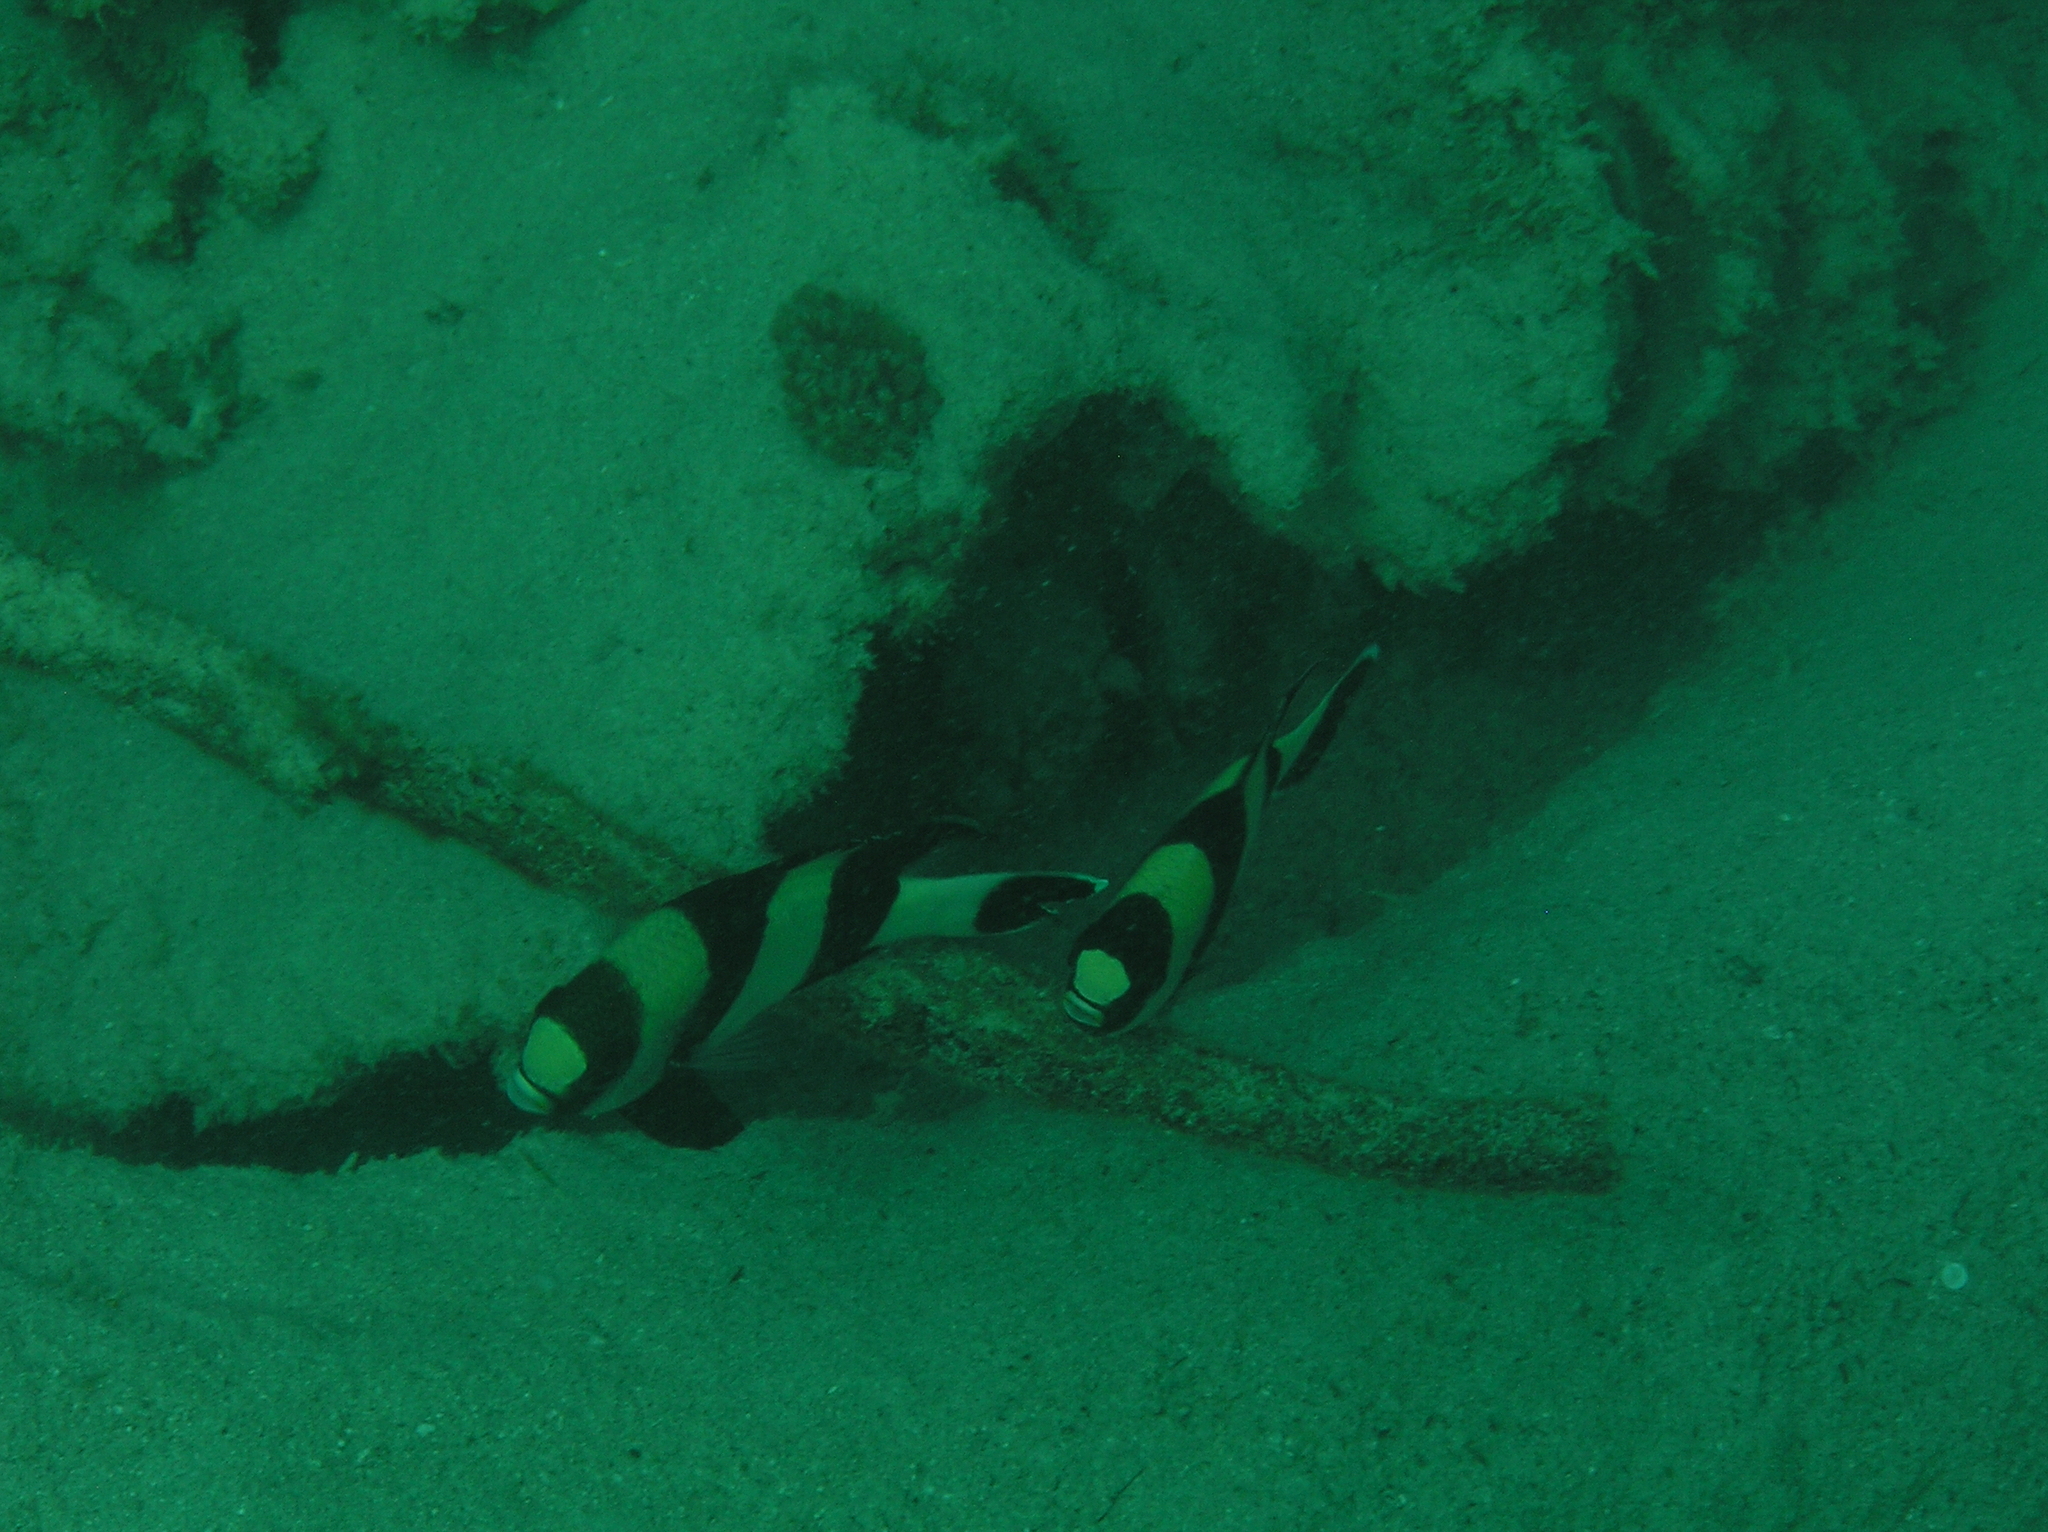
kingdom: Animalia
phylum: Chordata
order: Perciformes
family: Pomacentridae
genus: Dascyllus
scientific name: Dascyllus melanurus
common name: Black-tail dascyllus
